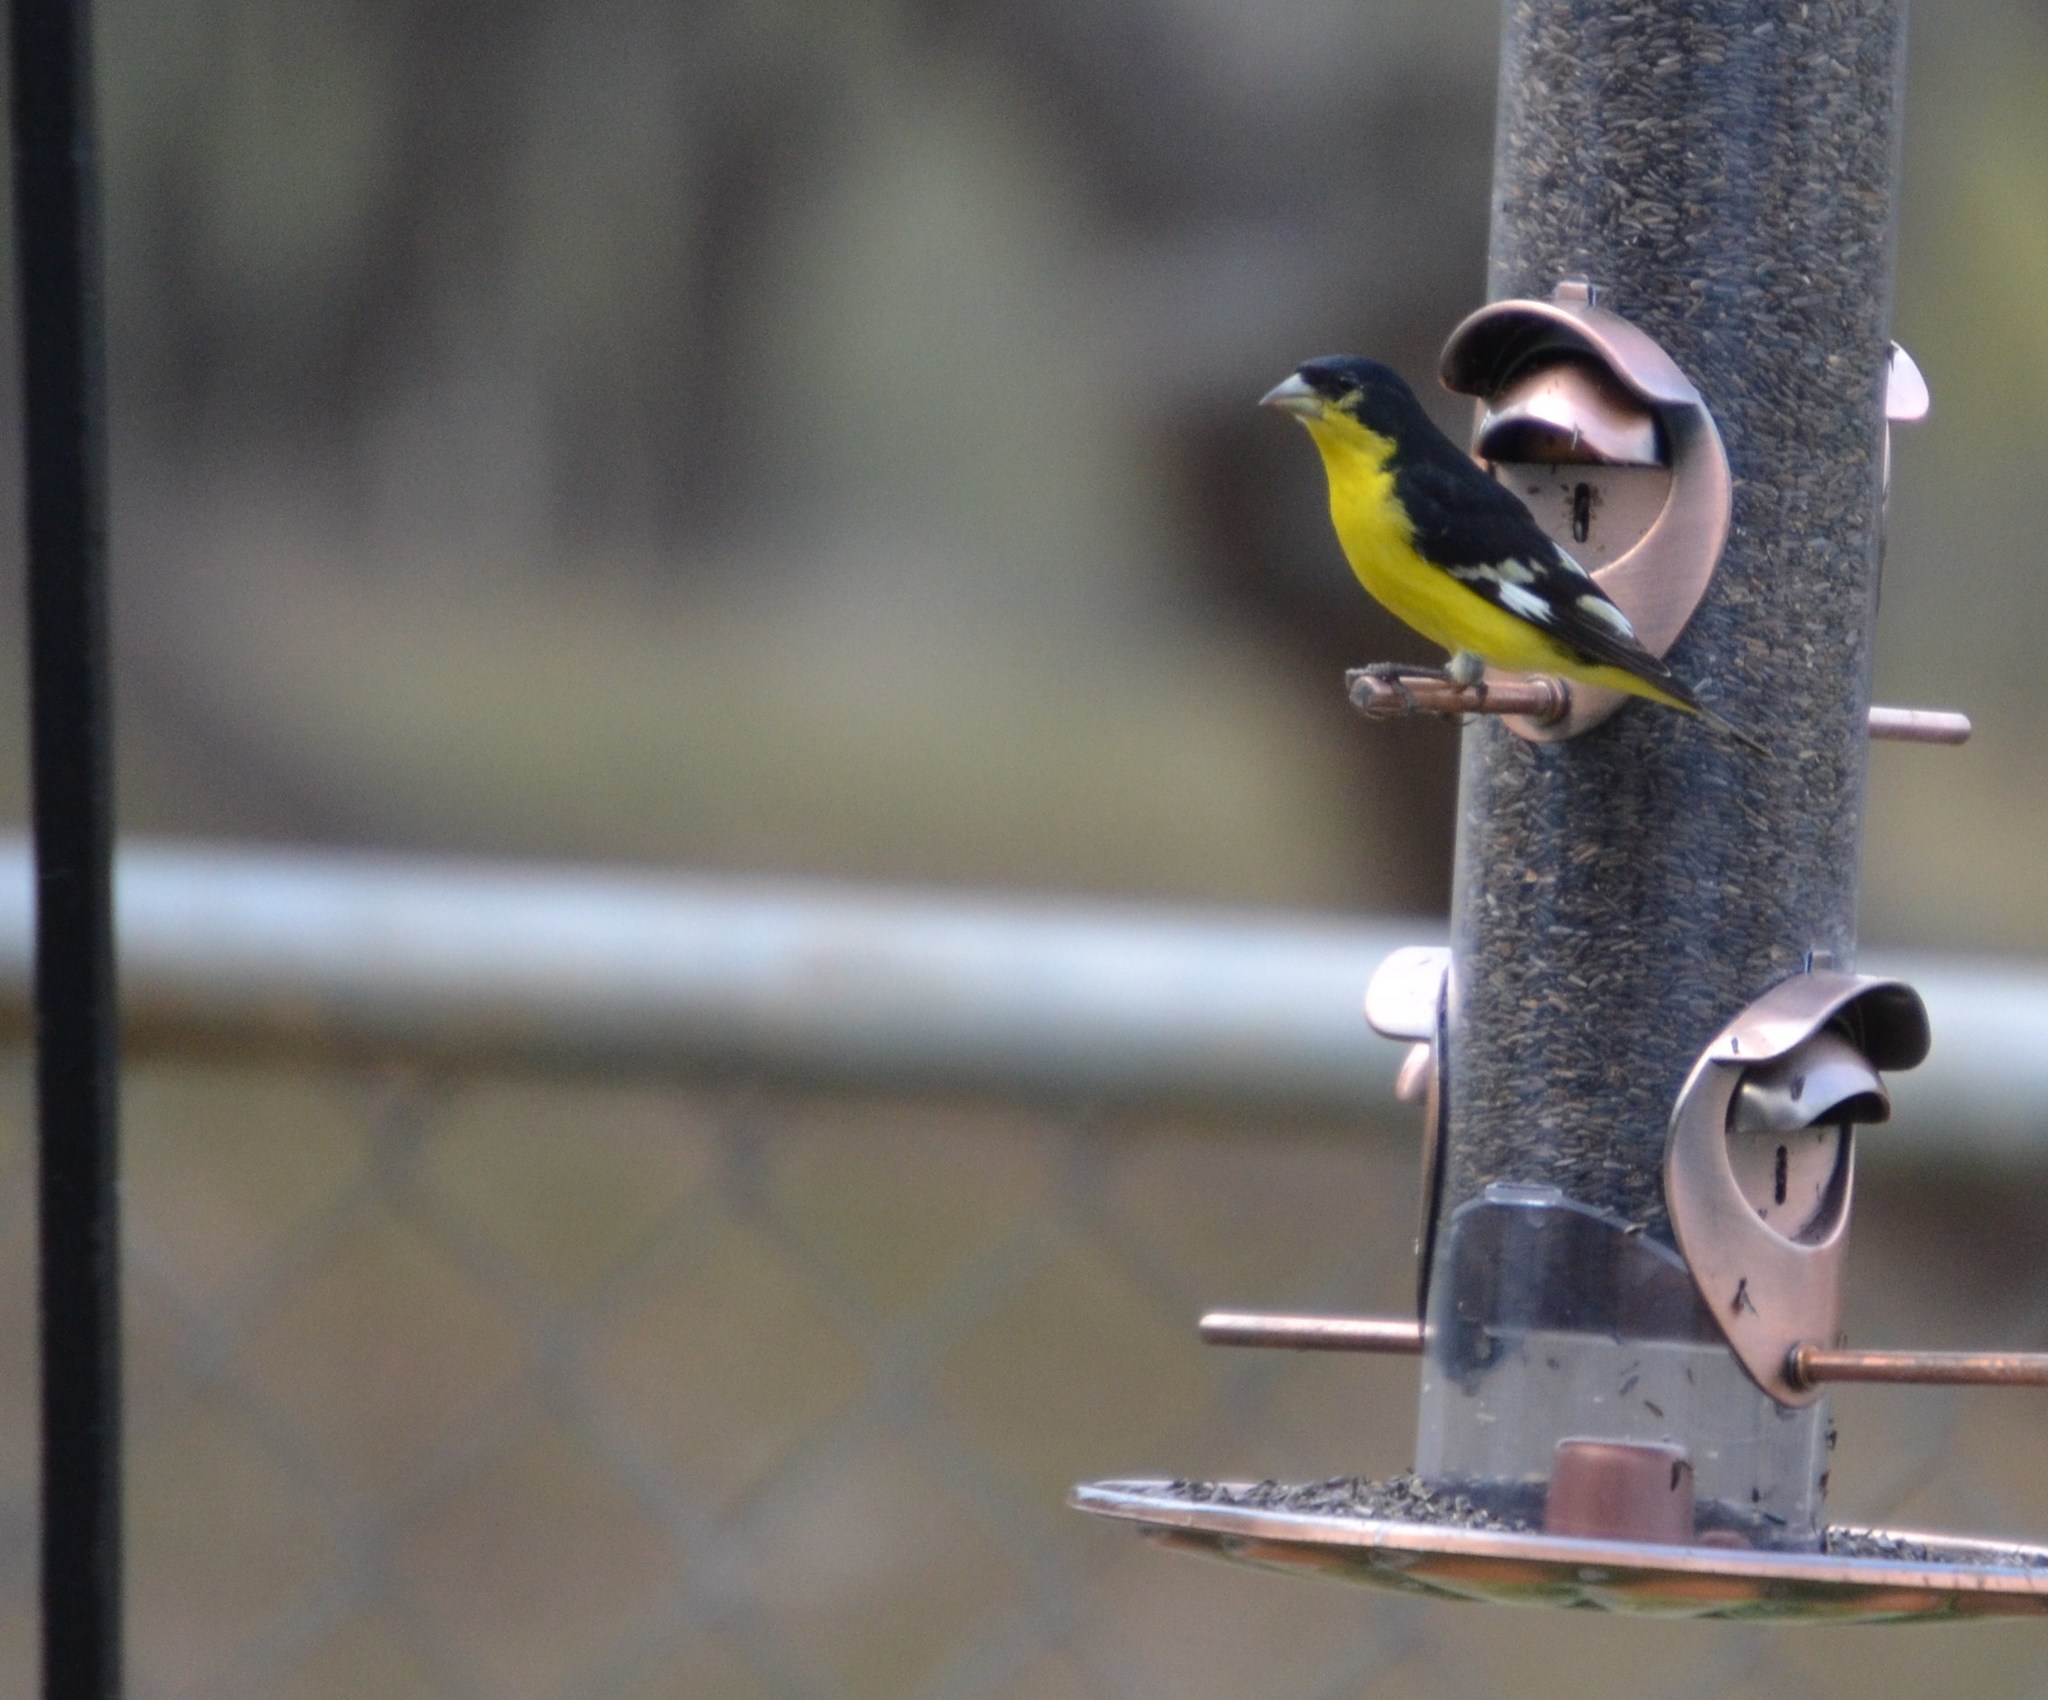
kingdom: Animalia
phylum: Chordata
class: Aves
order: Passeriformes
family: Fringillidae
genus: Spinus
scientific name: Spinus psaltria
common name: Lesser goldfinch
